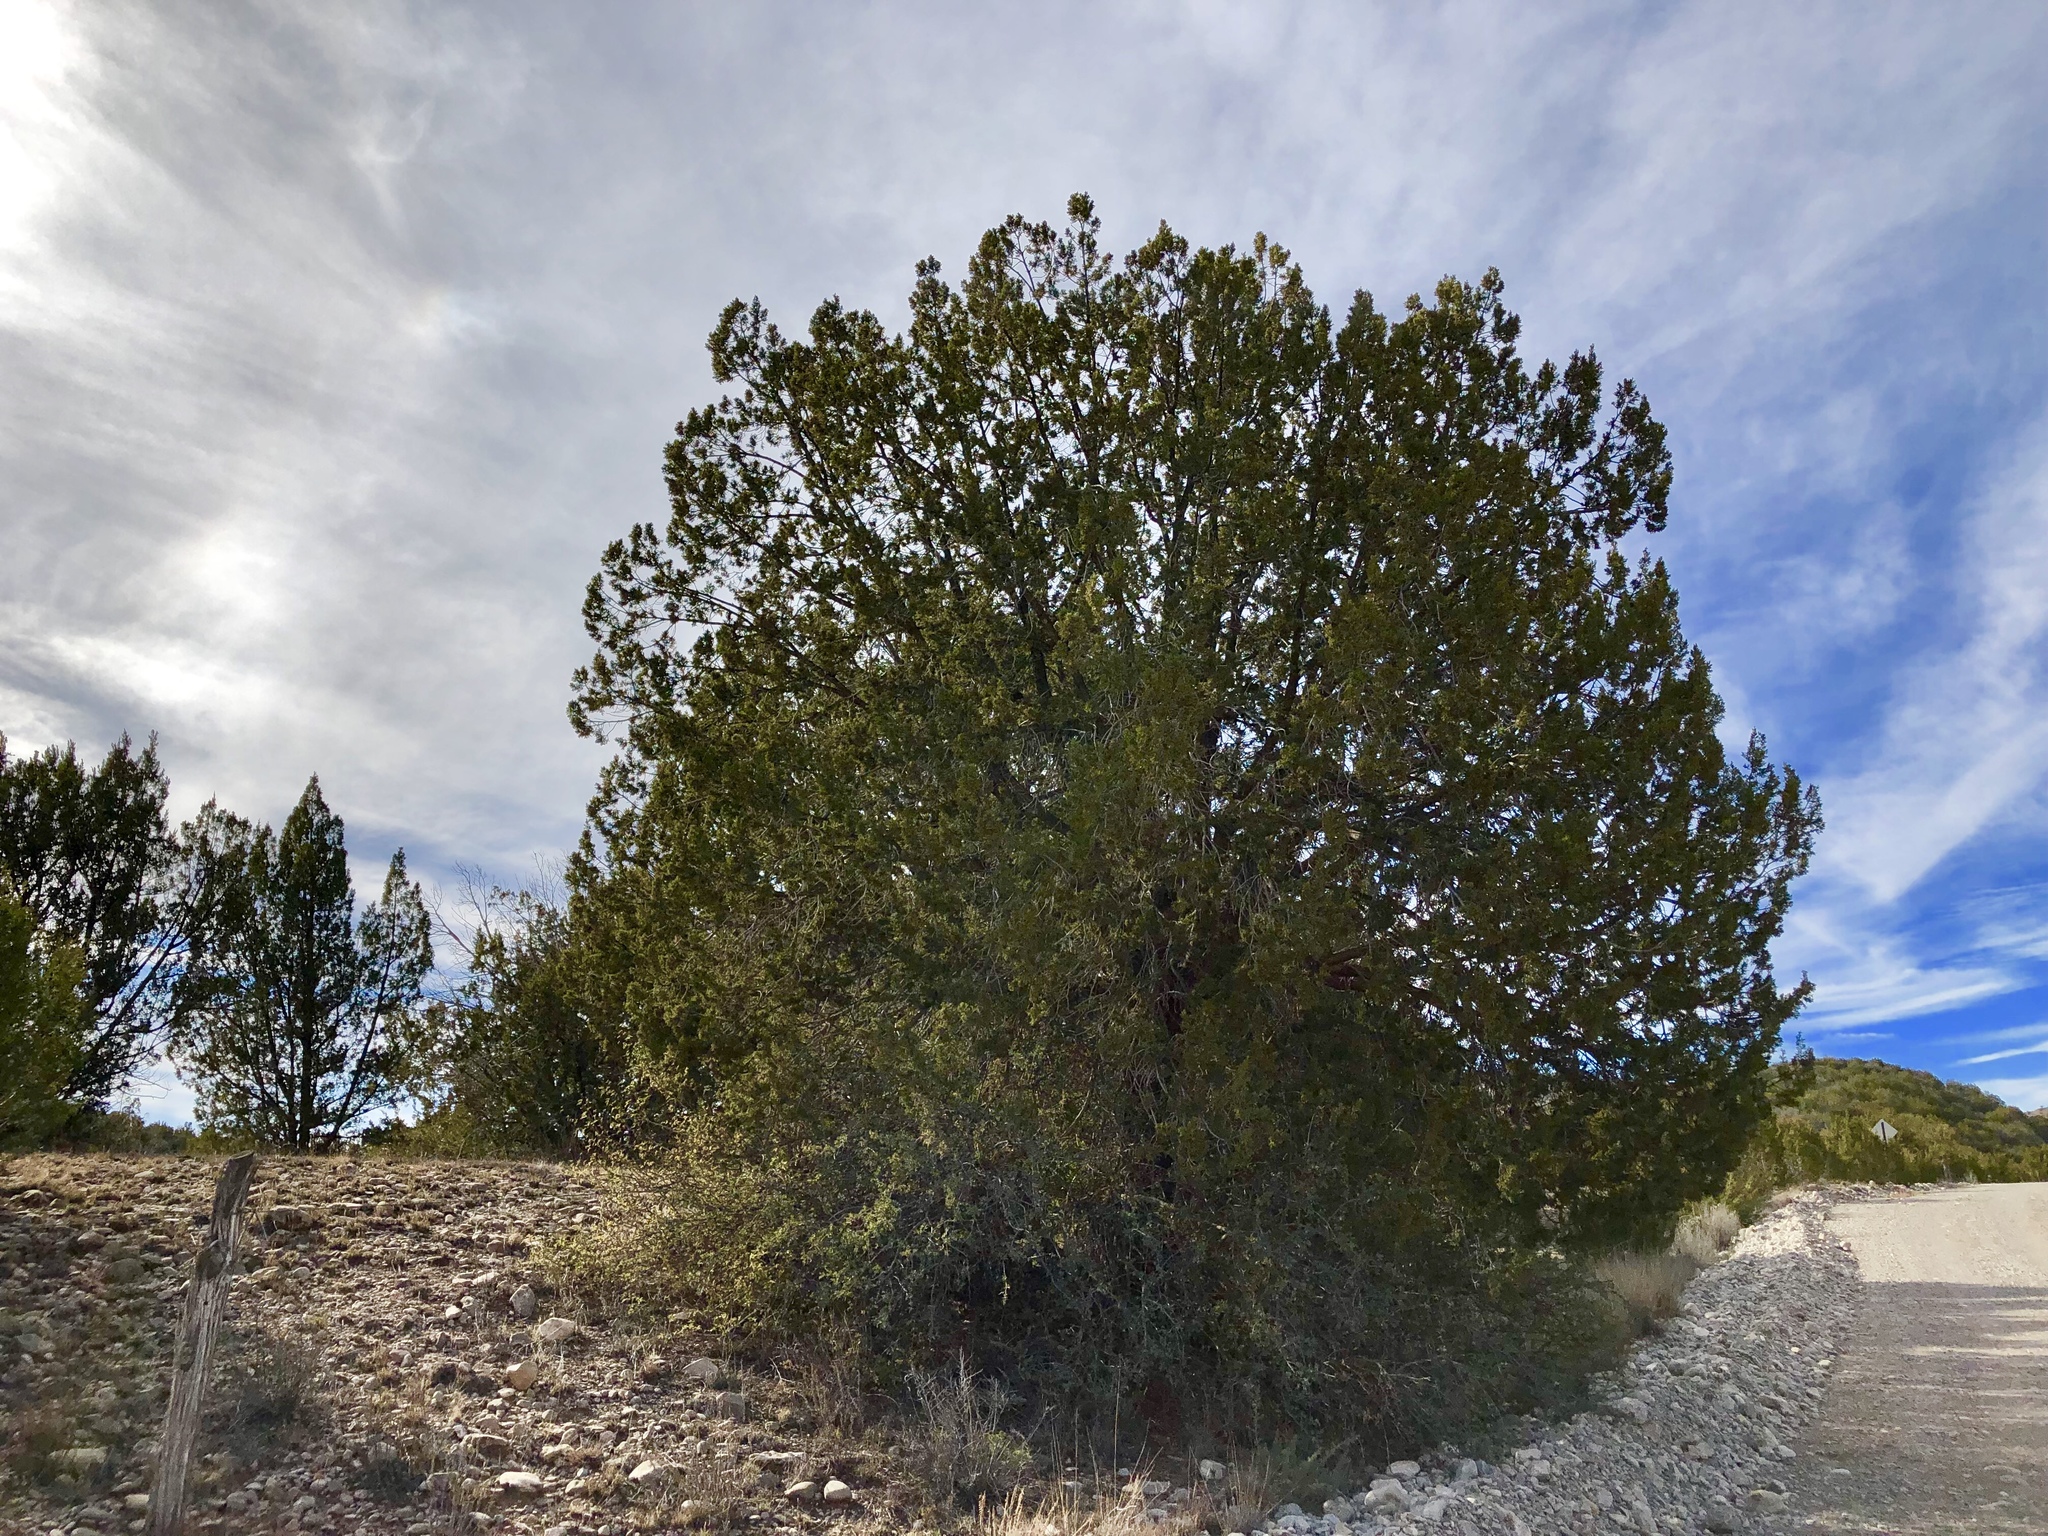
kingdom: Plantae
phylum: Tracheophyta
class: Pinopsida
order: Pinales
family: Cupressaceae
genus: Juniperus
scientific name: Juniperus monosperma
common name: One-seed juniper
